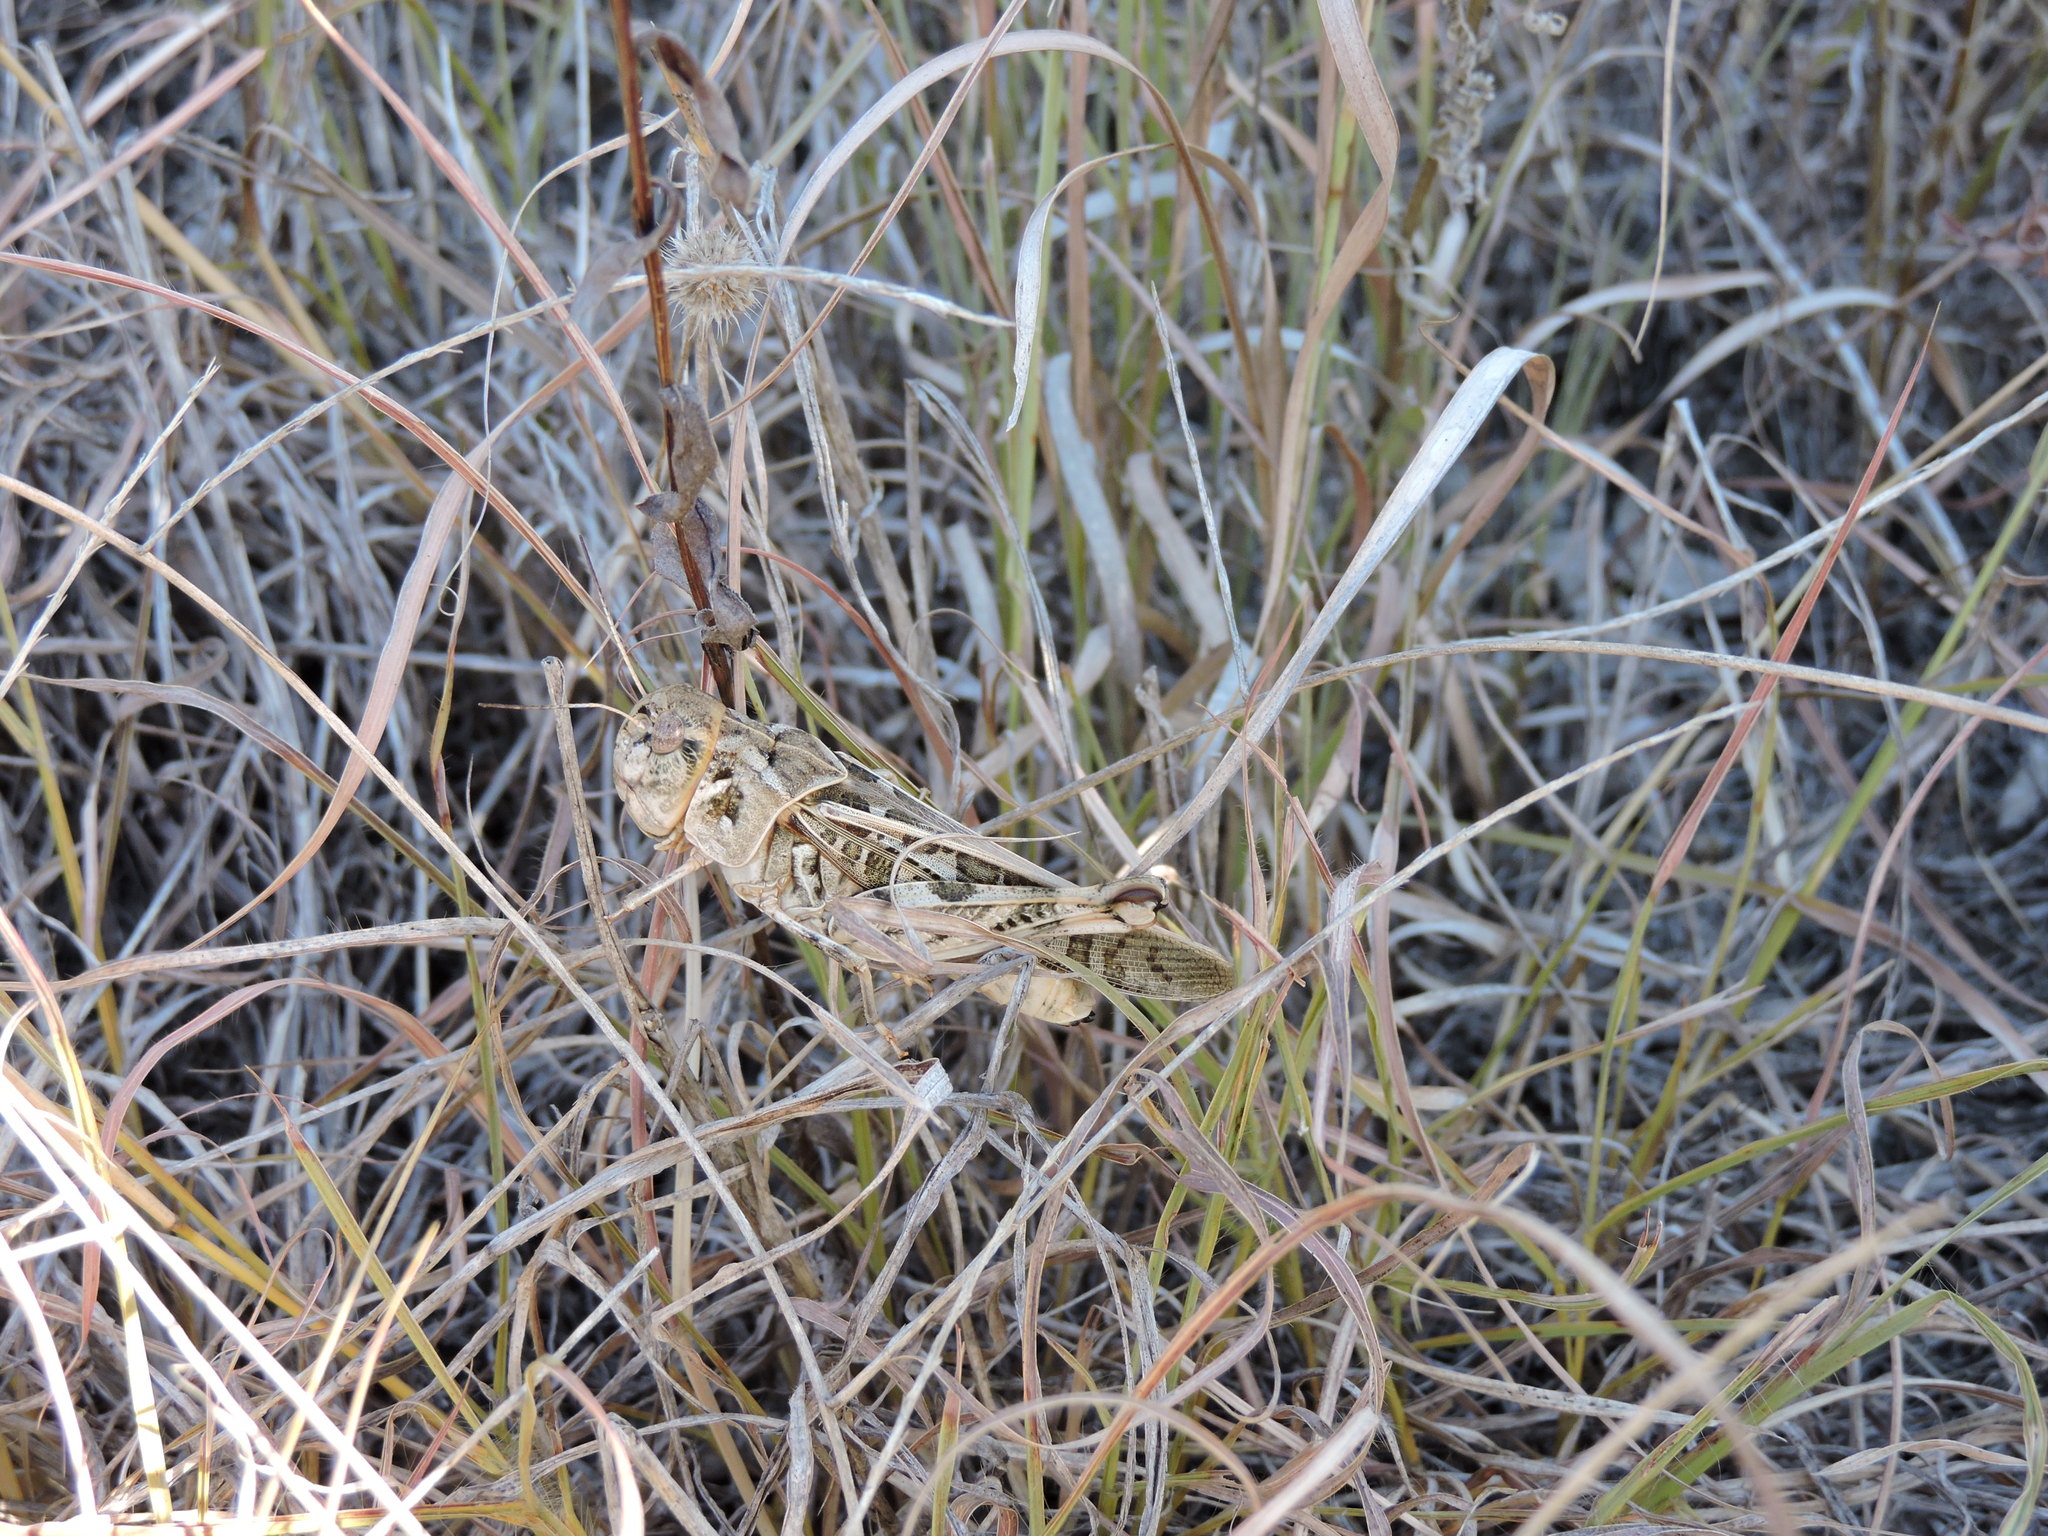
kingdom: Animalia
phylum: Arthropoda
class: Insecta
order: Orthoptera
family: Acrididae
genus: Hippiscus
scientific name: Hippiscus ocelote
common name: Wrinkled grasshopper
